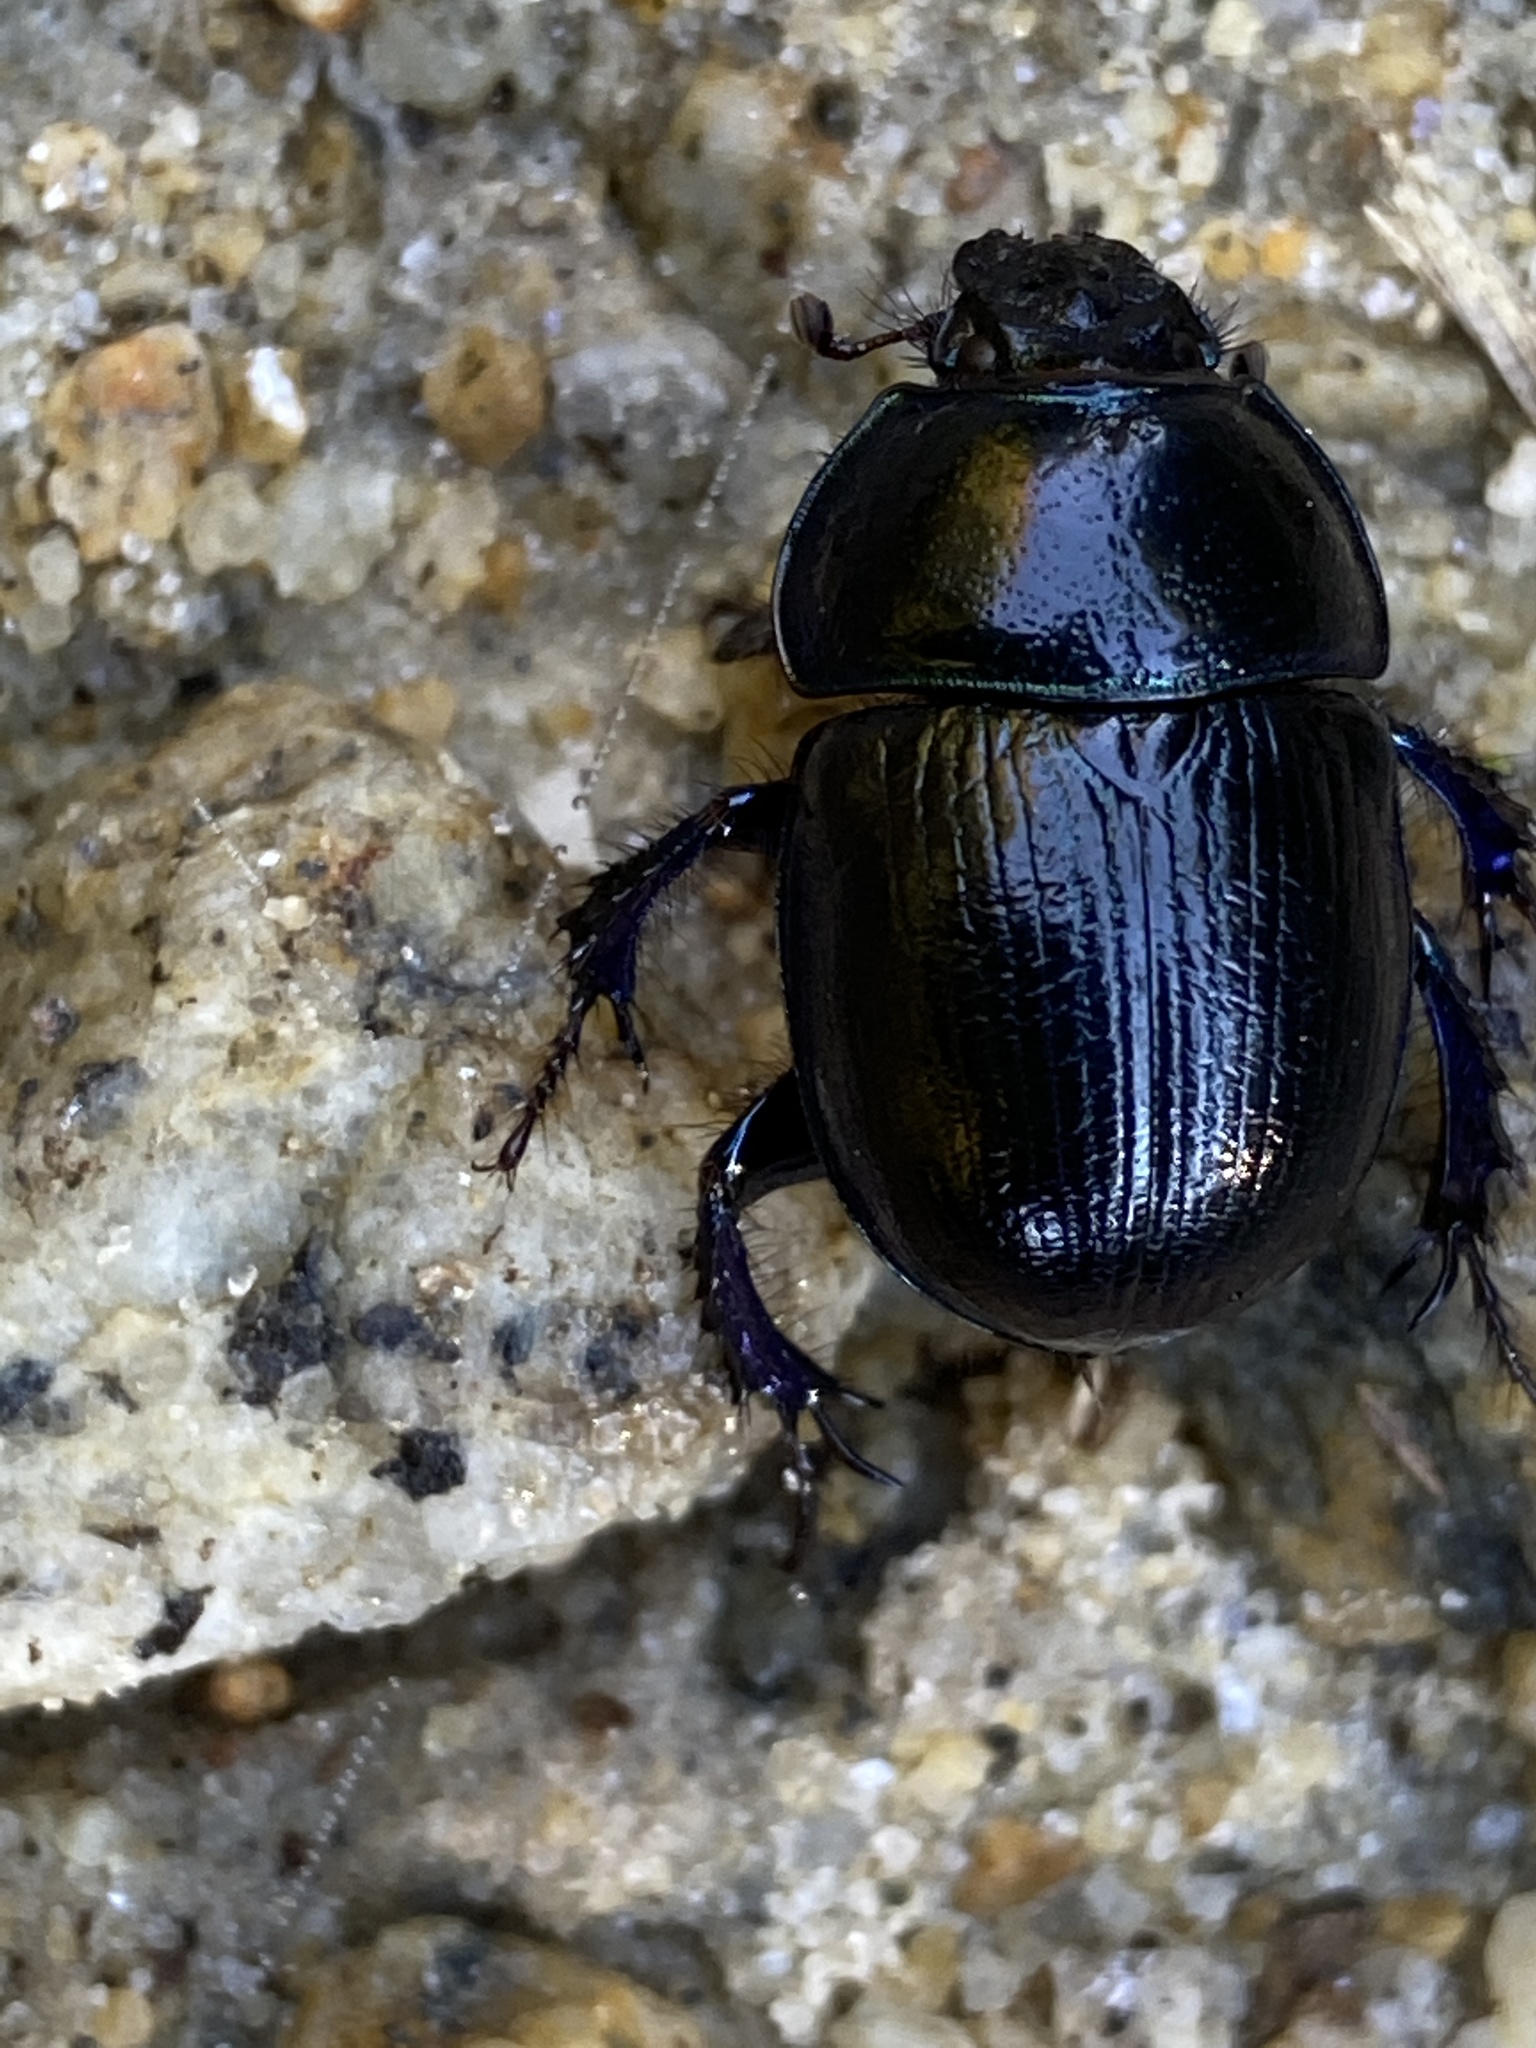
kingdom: Animalia
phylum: Arthropoda
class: Insecta
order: Coleoptera
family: Geotrupidae
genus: Anoplotrupes
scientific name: Anoplotrupes stercorosus
